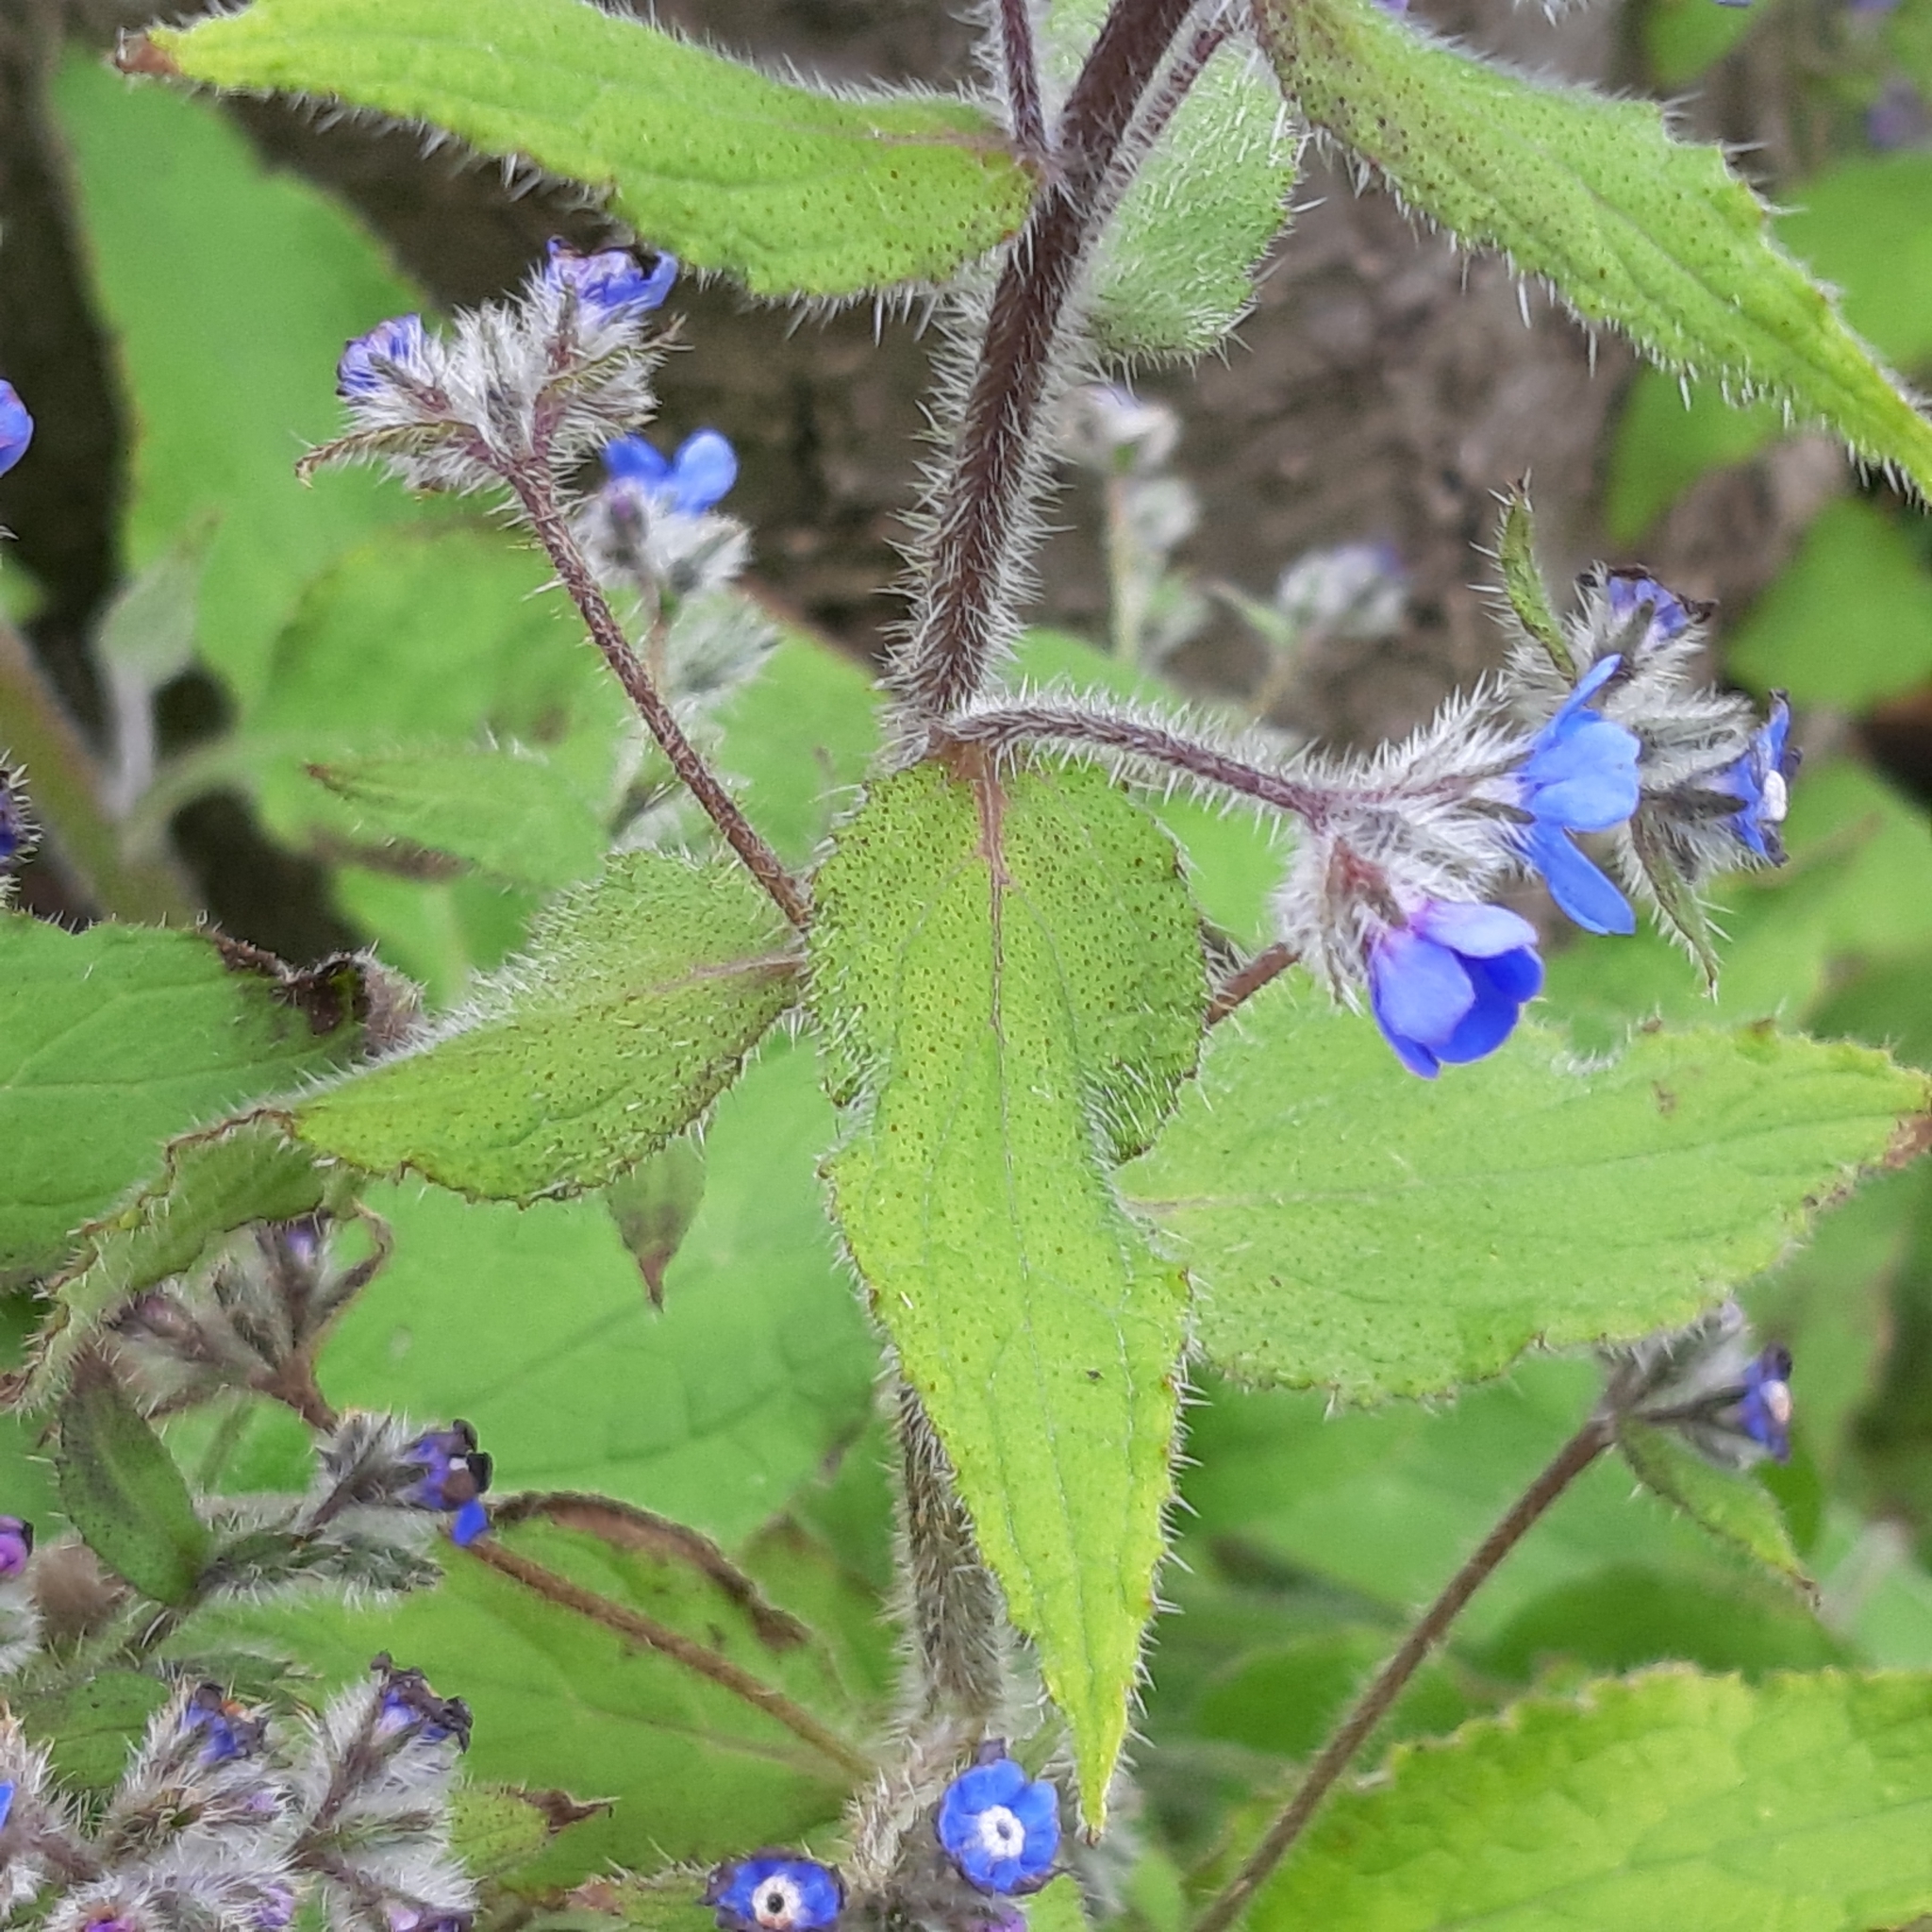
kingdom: Plantae
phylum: Tracheophyta
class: Magnoliopsida
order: Boraginales
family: Boraginaceae
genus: Pentaglottis
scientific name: Pentaglottis sempervirens
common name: Green alkanet
